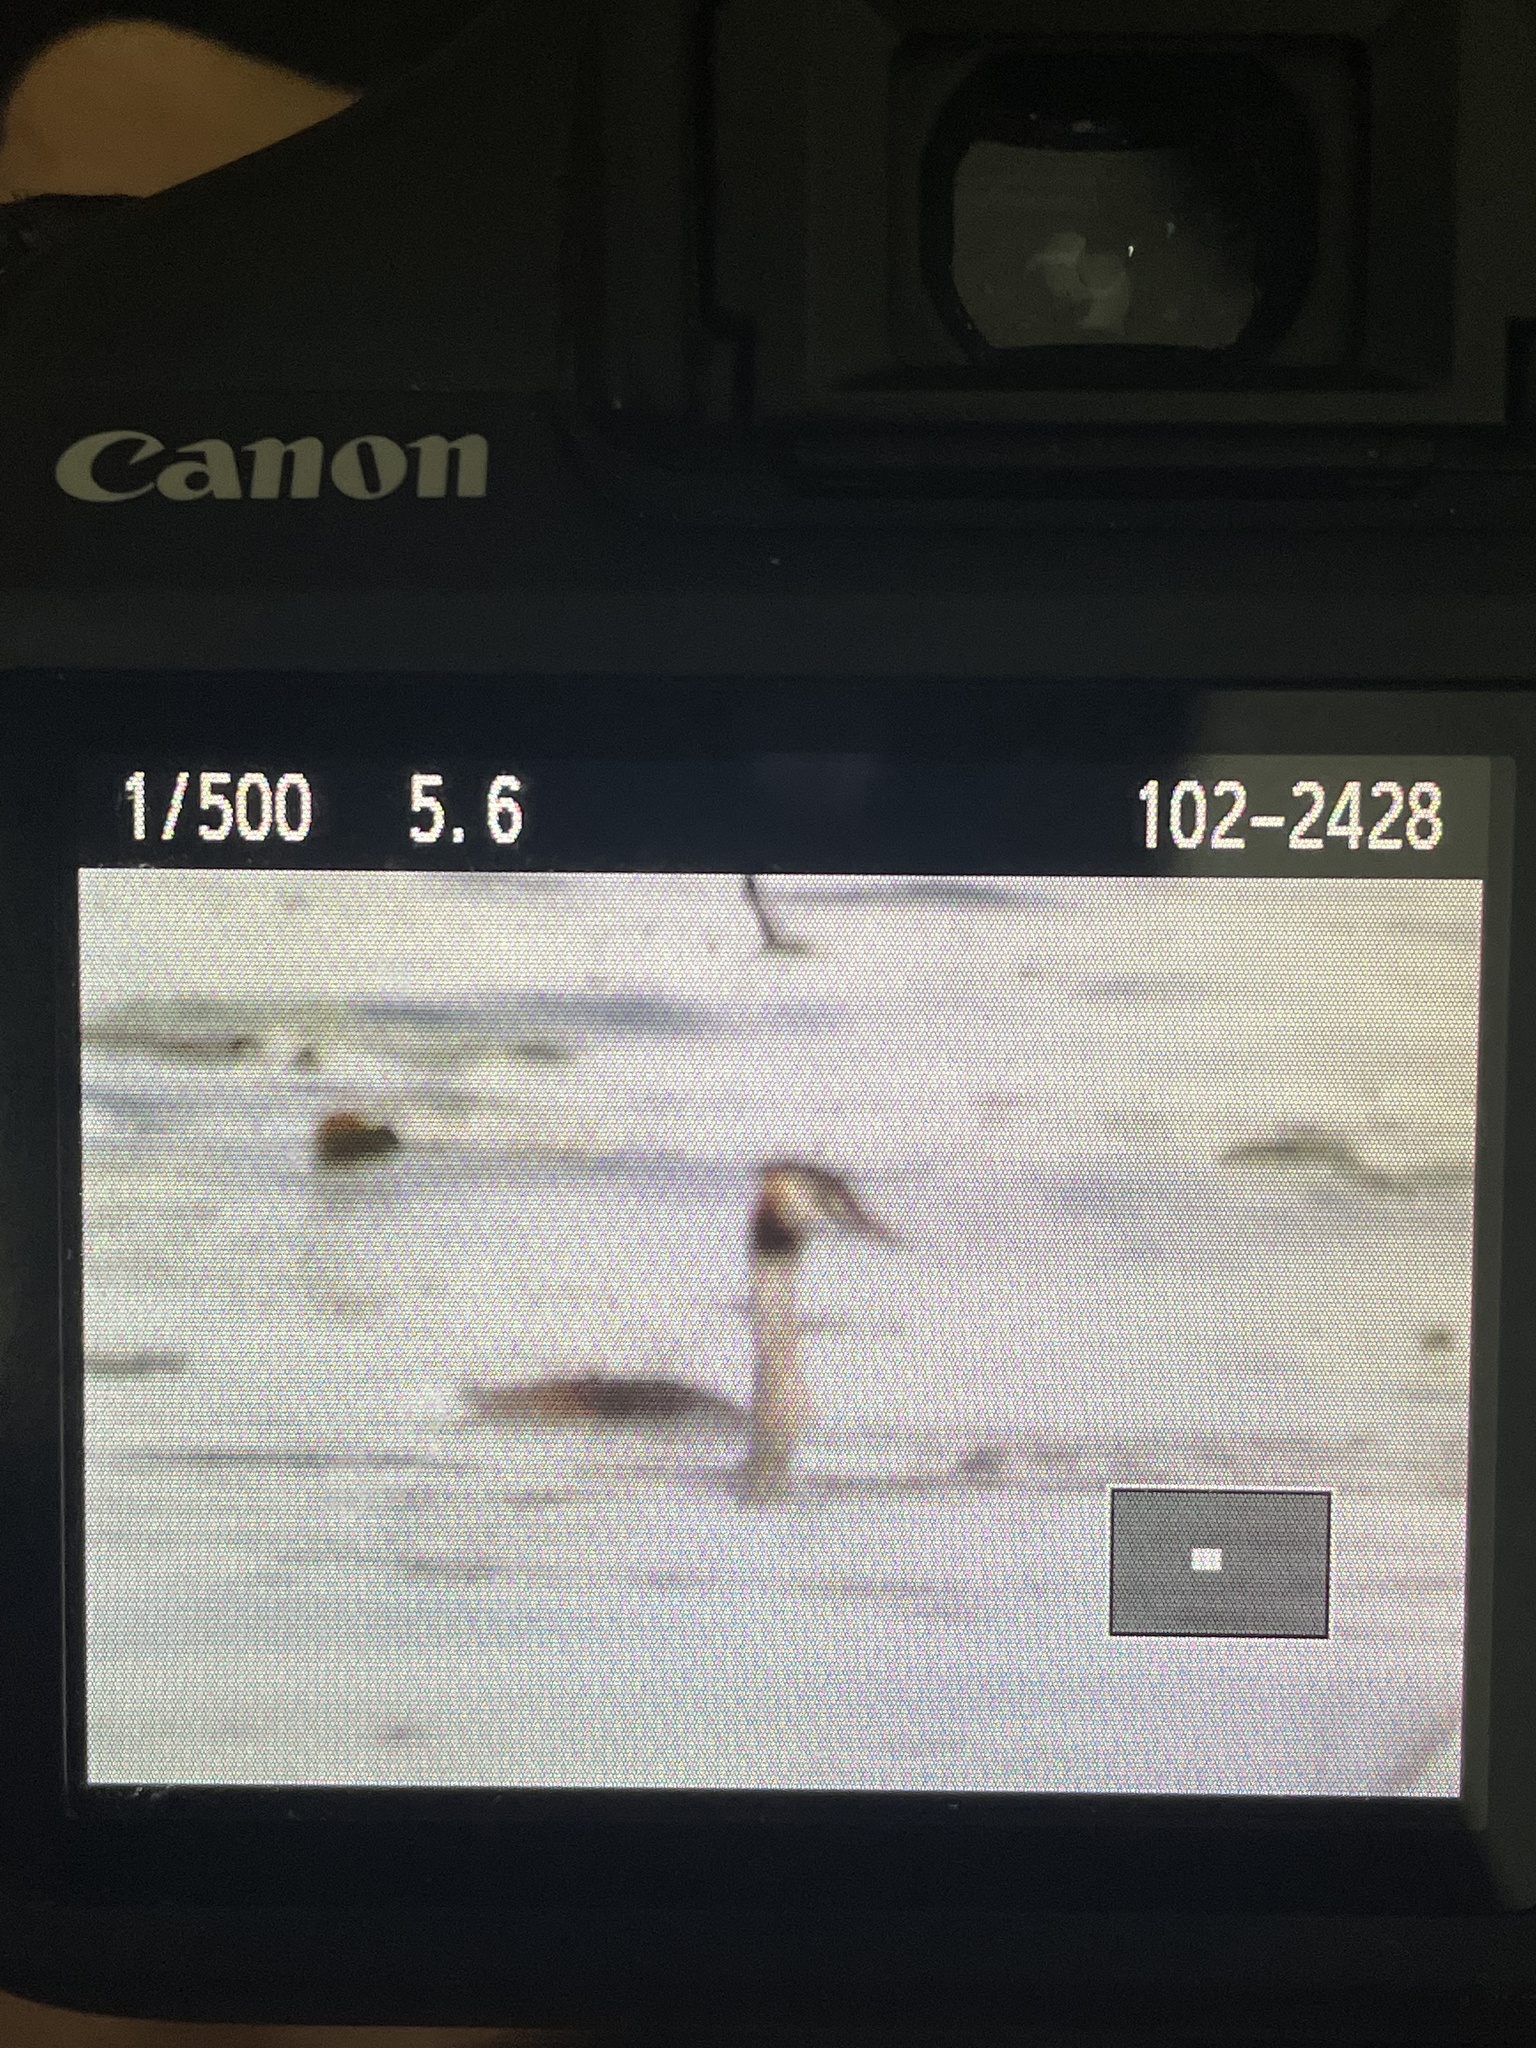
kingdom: Animalia
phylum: Chordata
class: Aves
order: Podicipediformes
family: Podicipedidae
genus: Podiceps
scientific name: Podiceps cristatus
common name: Great crested grebe
